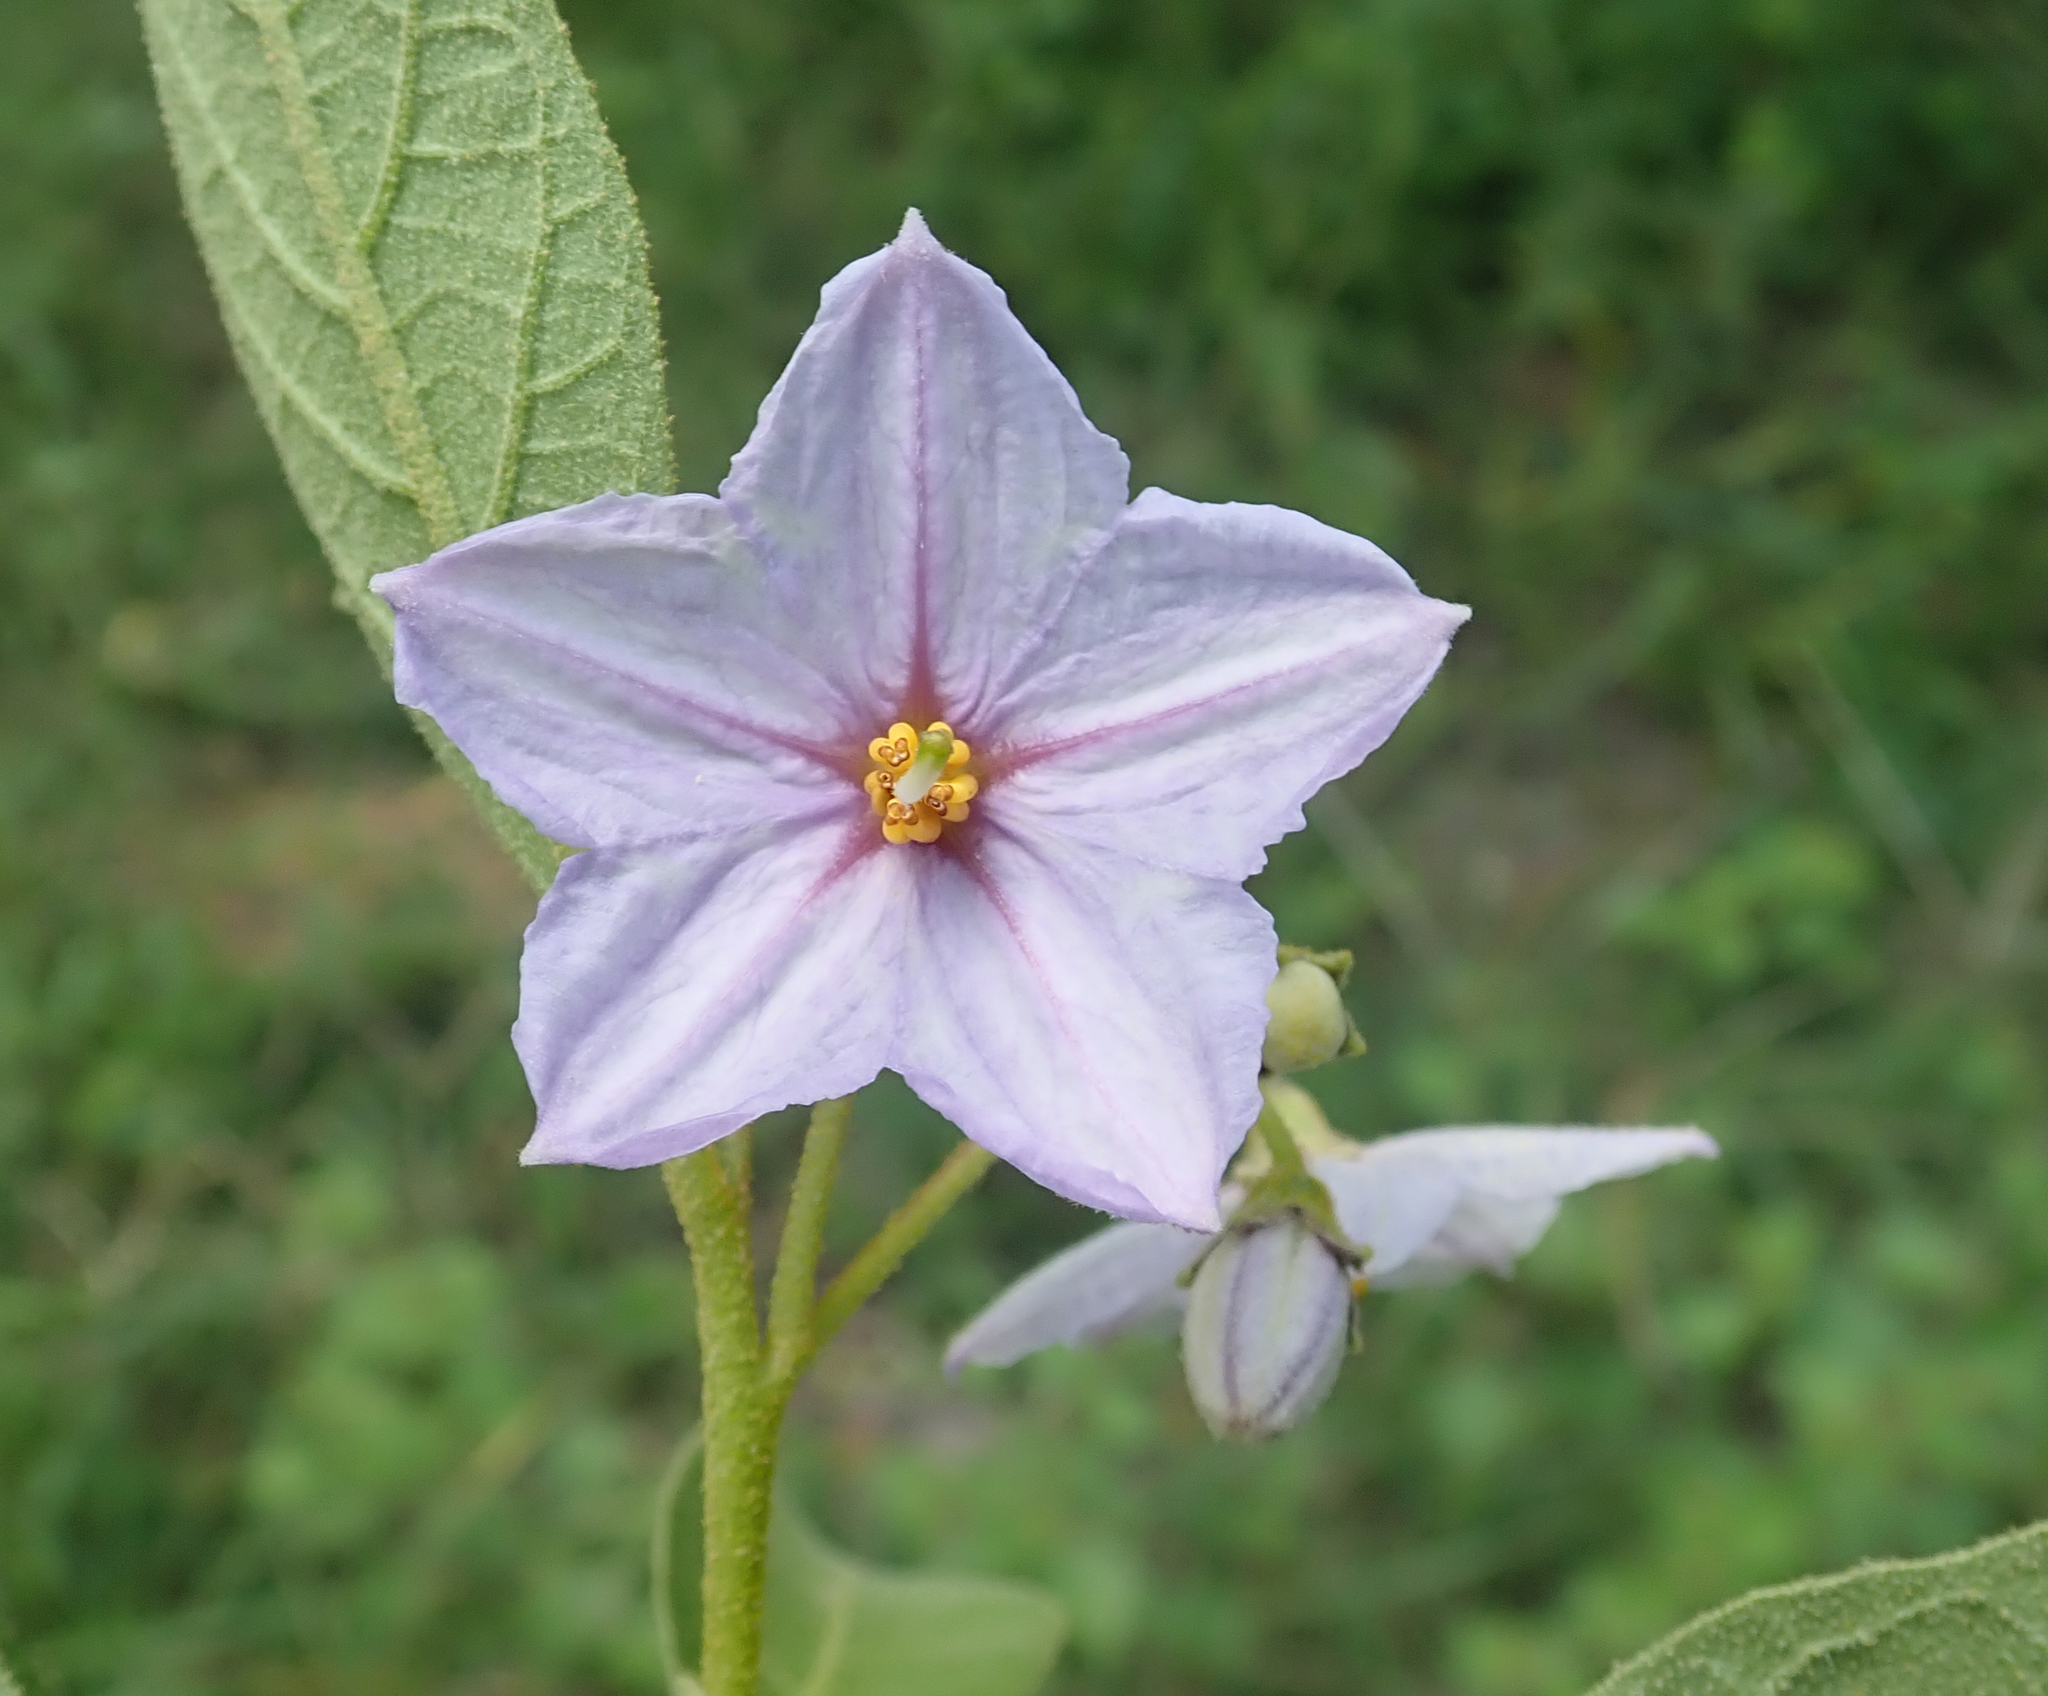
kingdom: Plantae
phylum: Tracheophyta
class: Magnoliopsida
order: Solanales
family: Solanaceae
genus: Solanum
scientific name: Solanum campylacanthum
